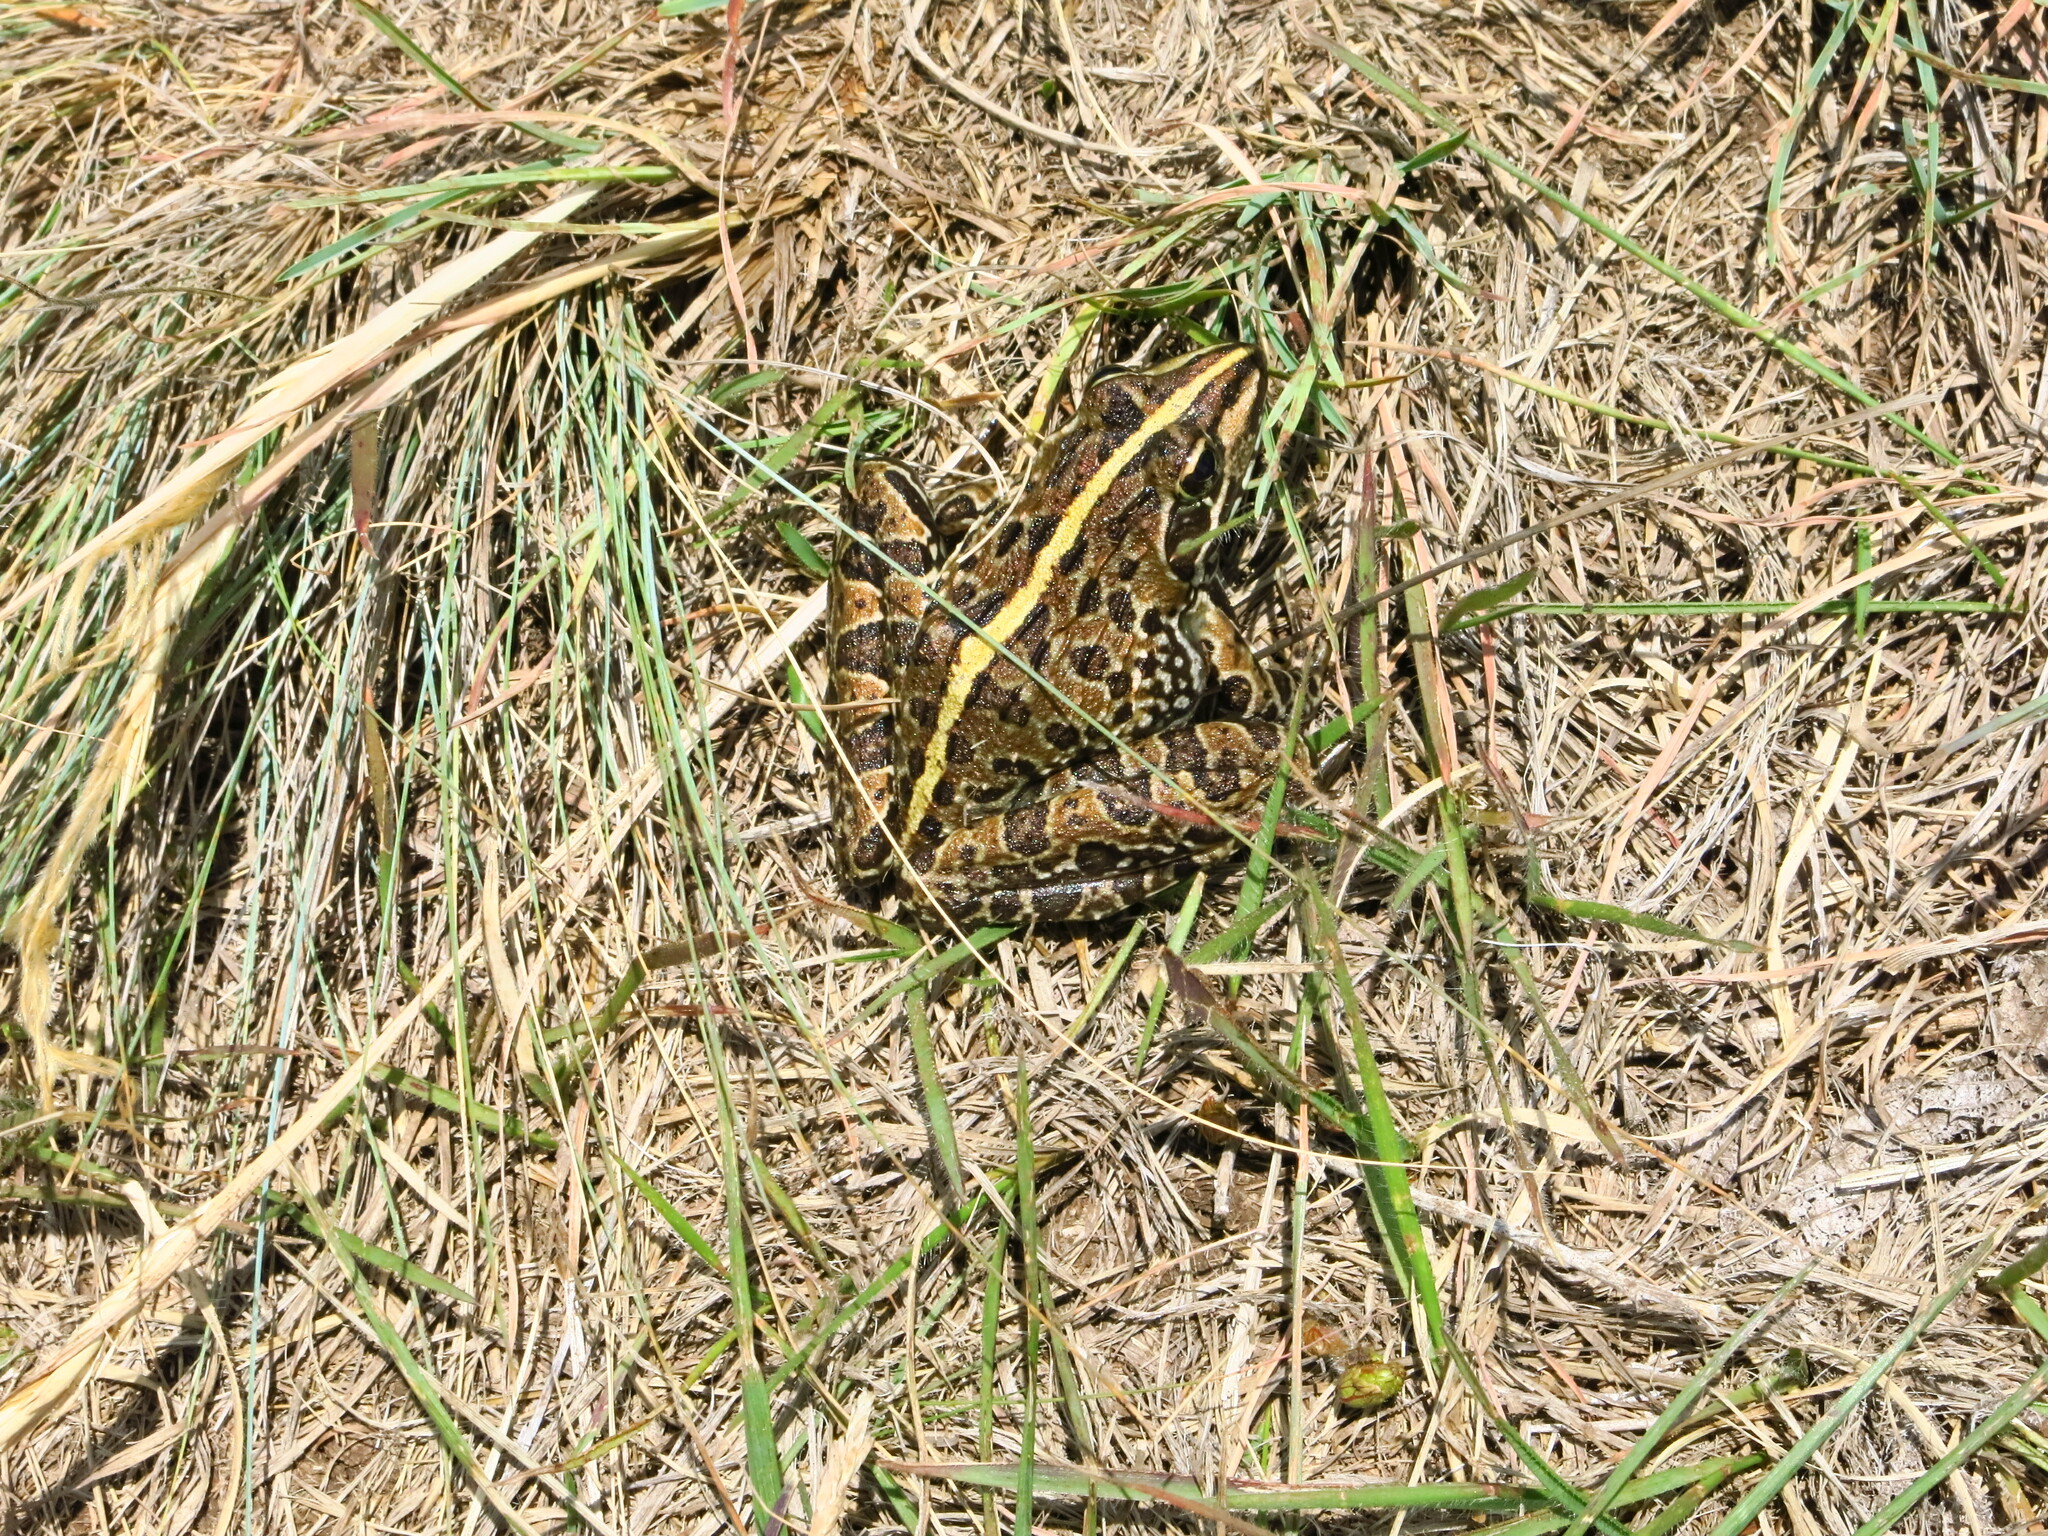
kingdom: Animalia
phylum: Chordata
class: Amphibia
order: Anura
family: Pyxicephalidae
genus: Amietia
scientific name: Amietia delalandii
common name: Delalande's river frog
